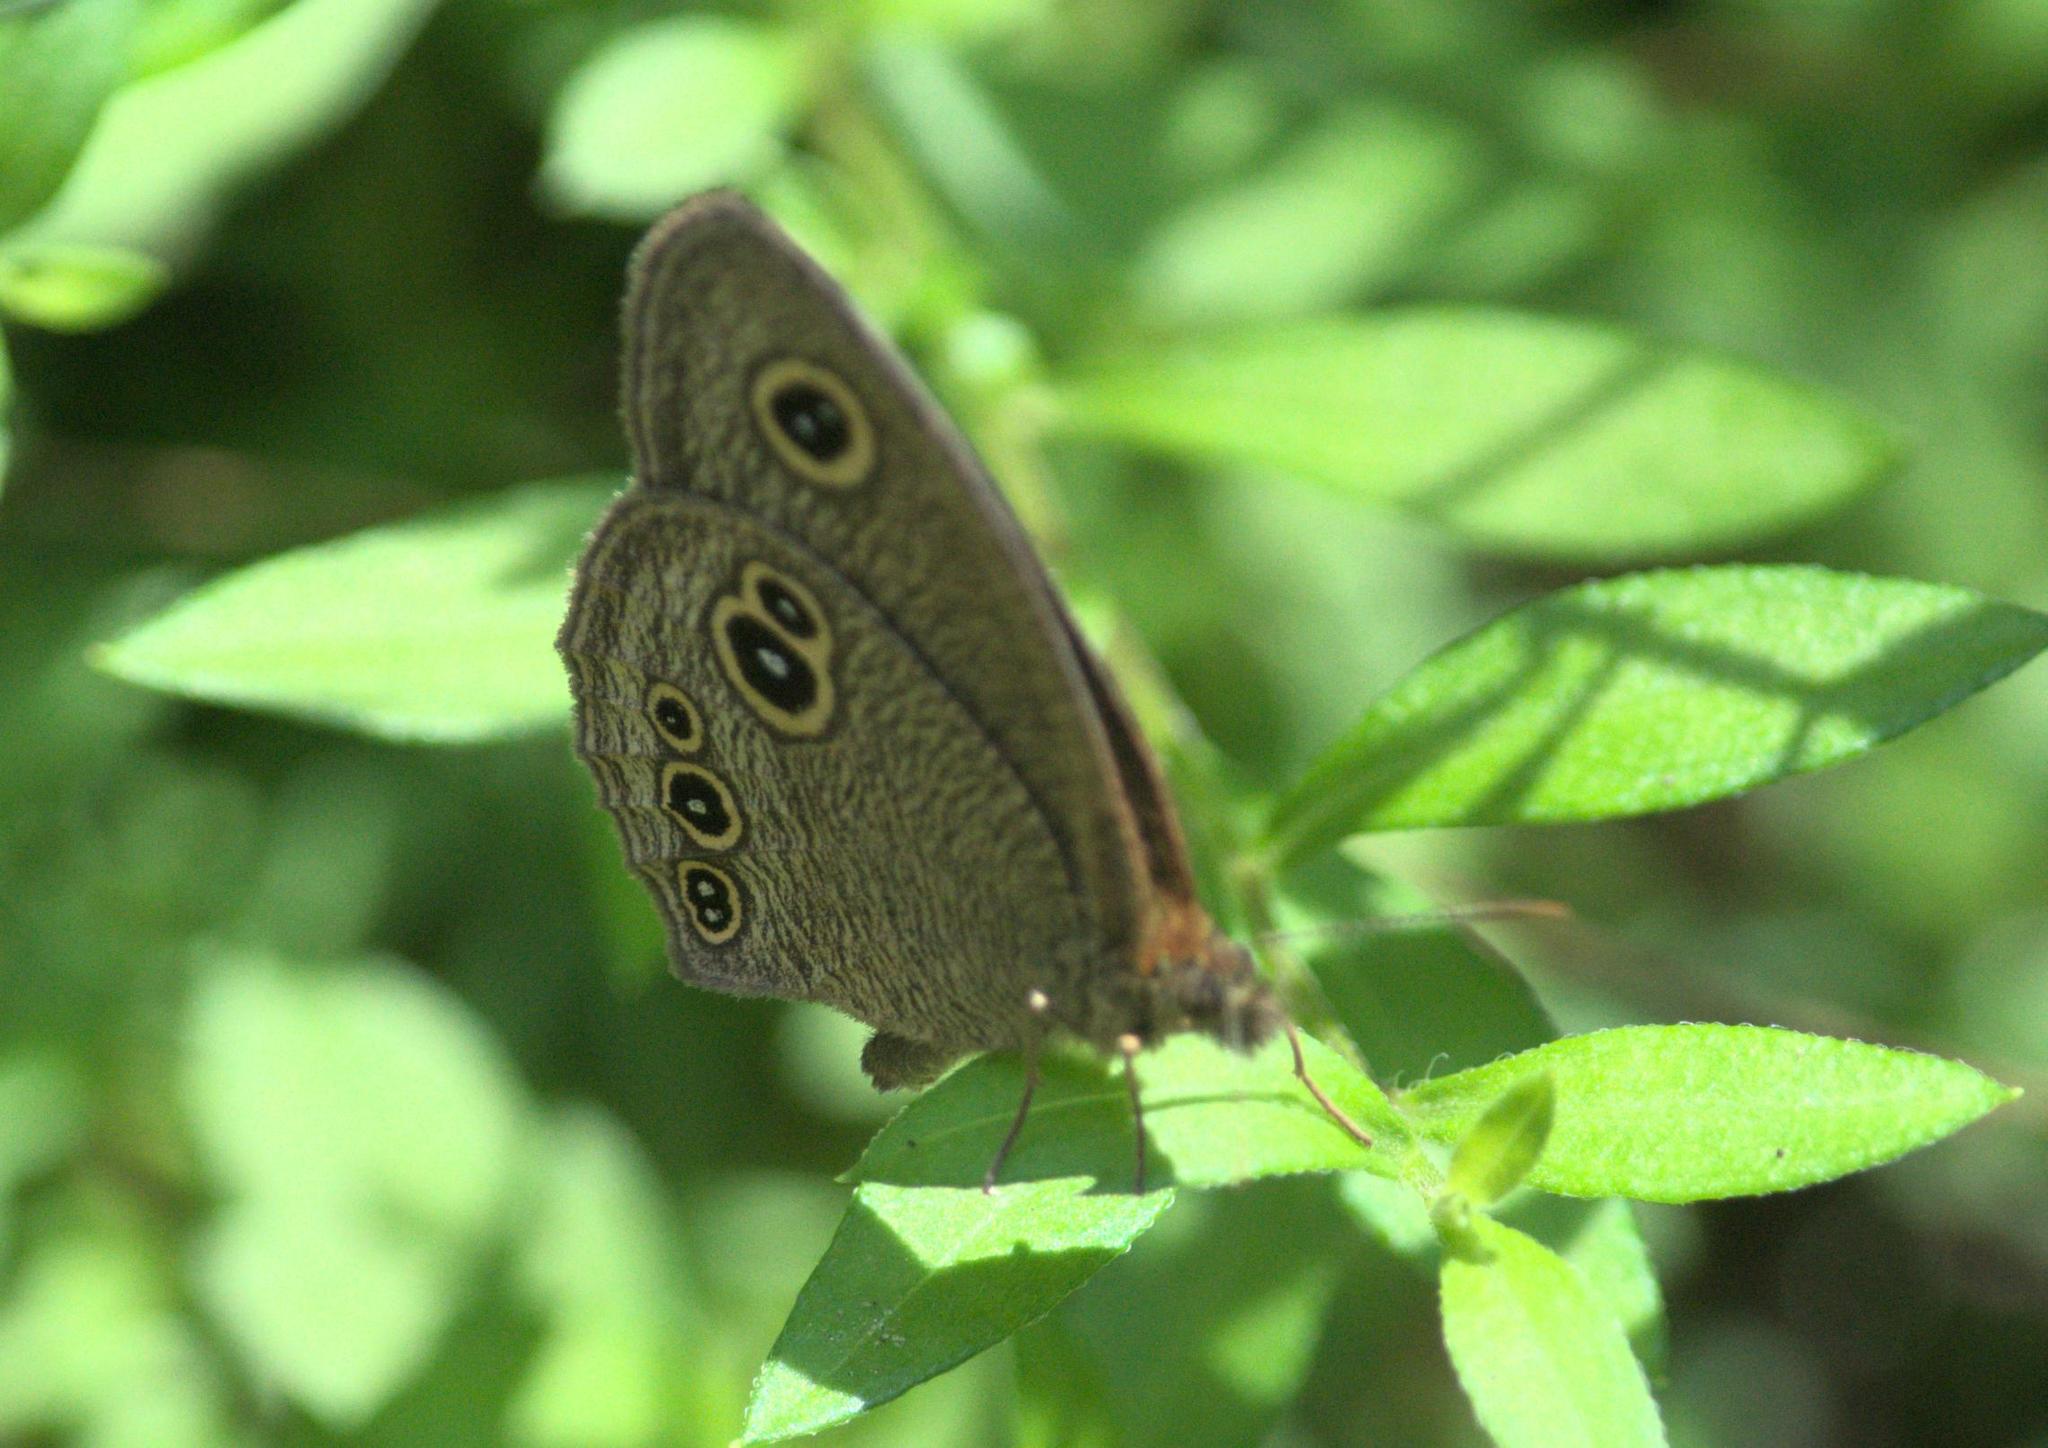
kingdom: Animalia
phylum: Arthropoda
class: Insecta
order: Lepidoptera
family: Nymphalidae
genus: Ypthima
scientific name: Ypthima nikaea
